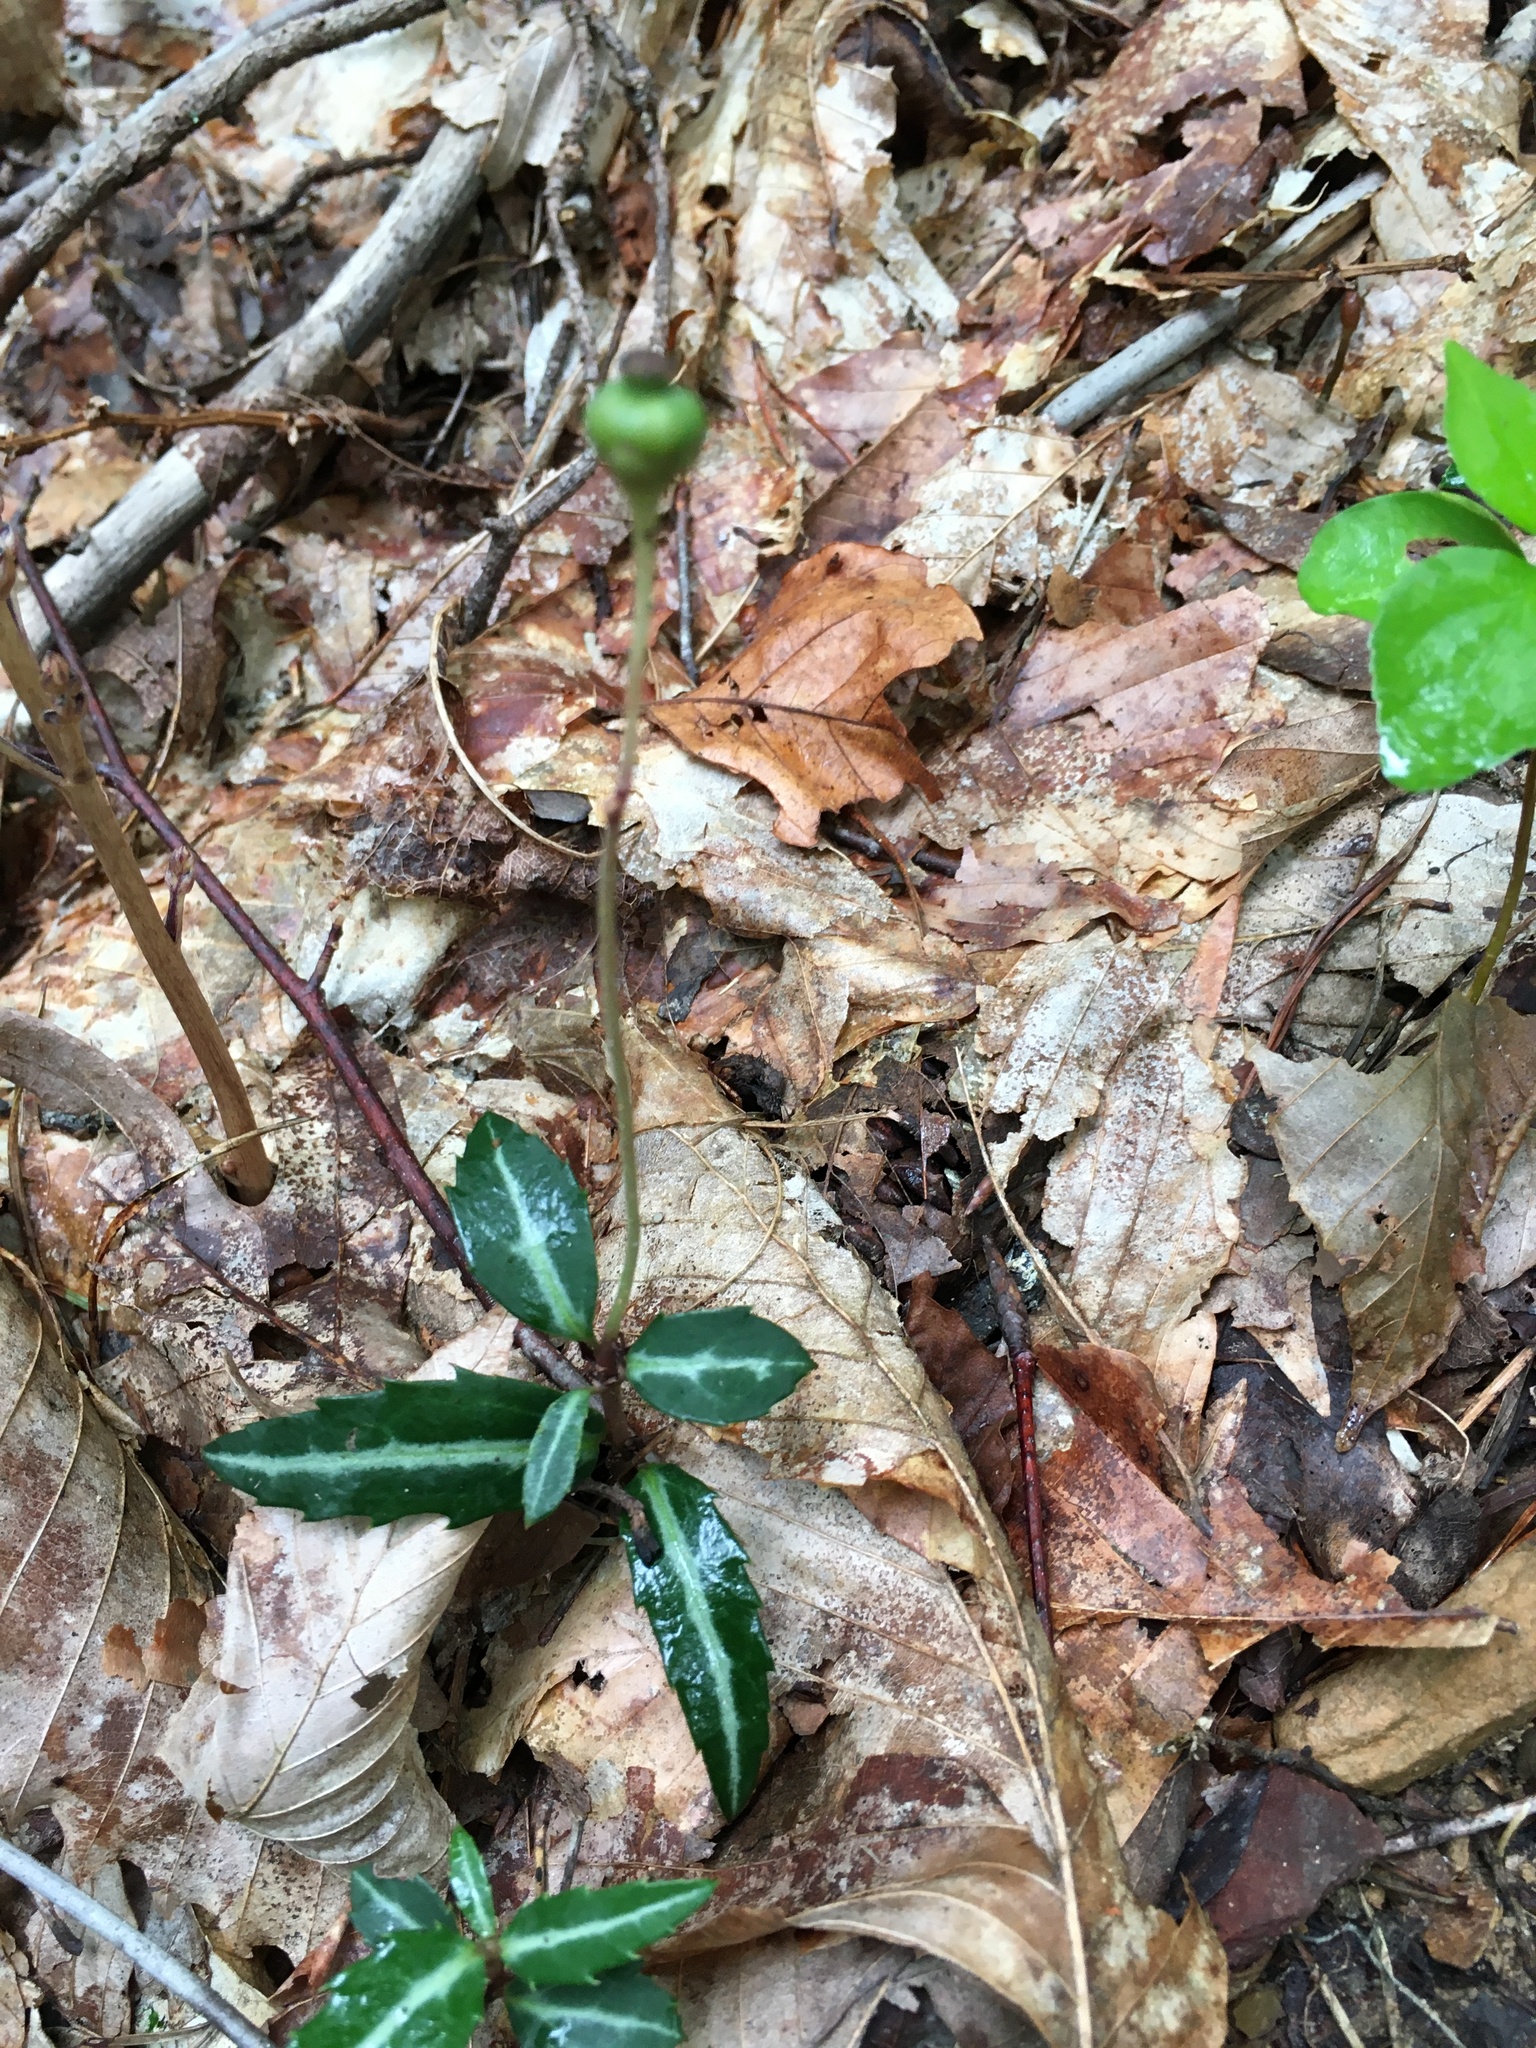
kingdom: Plantae
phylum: Tracheophyta
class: Magnoliopsida
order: Ericales
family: Ericaceae
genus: Chimaphila
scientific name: Chimaphila maculata
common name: Spotted pipsissewa
